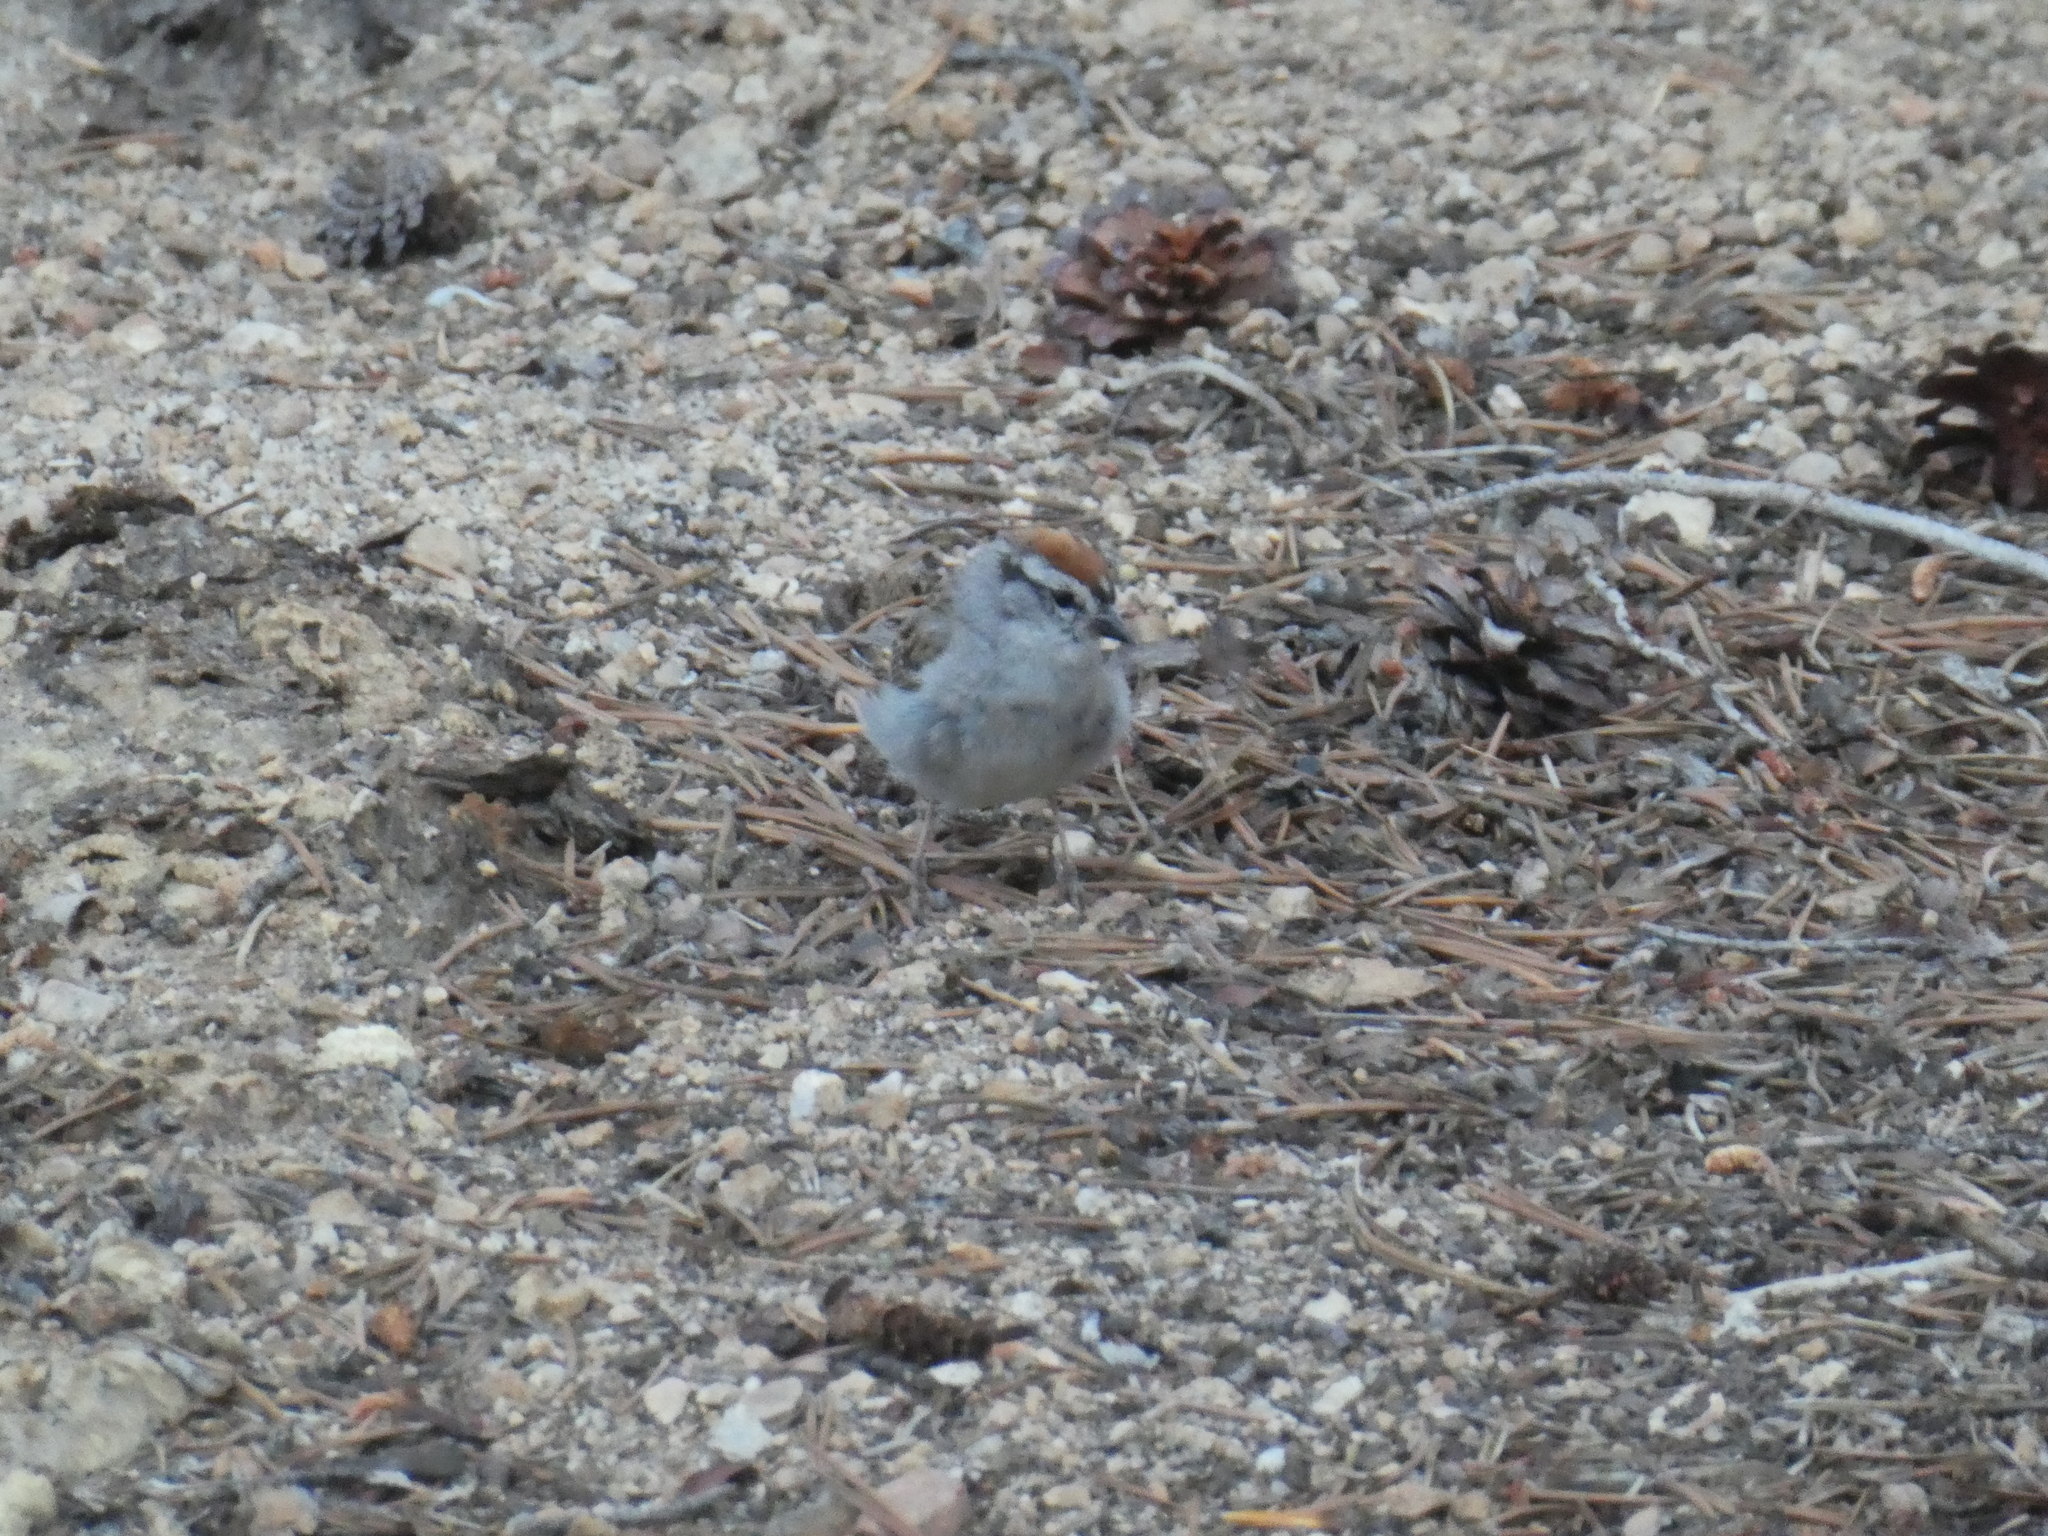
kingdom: Animalia
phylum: Chordata
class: Aves
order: Passeriformes
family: Passerellidae
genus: Spizella
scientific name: Spizella passerina
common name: Chipping sparrow
